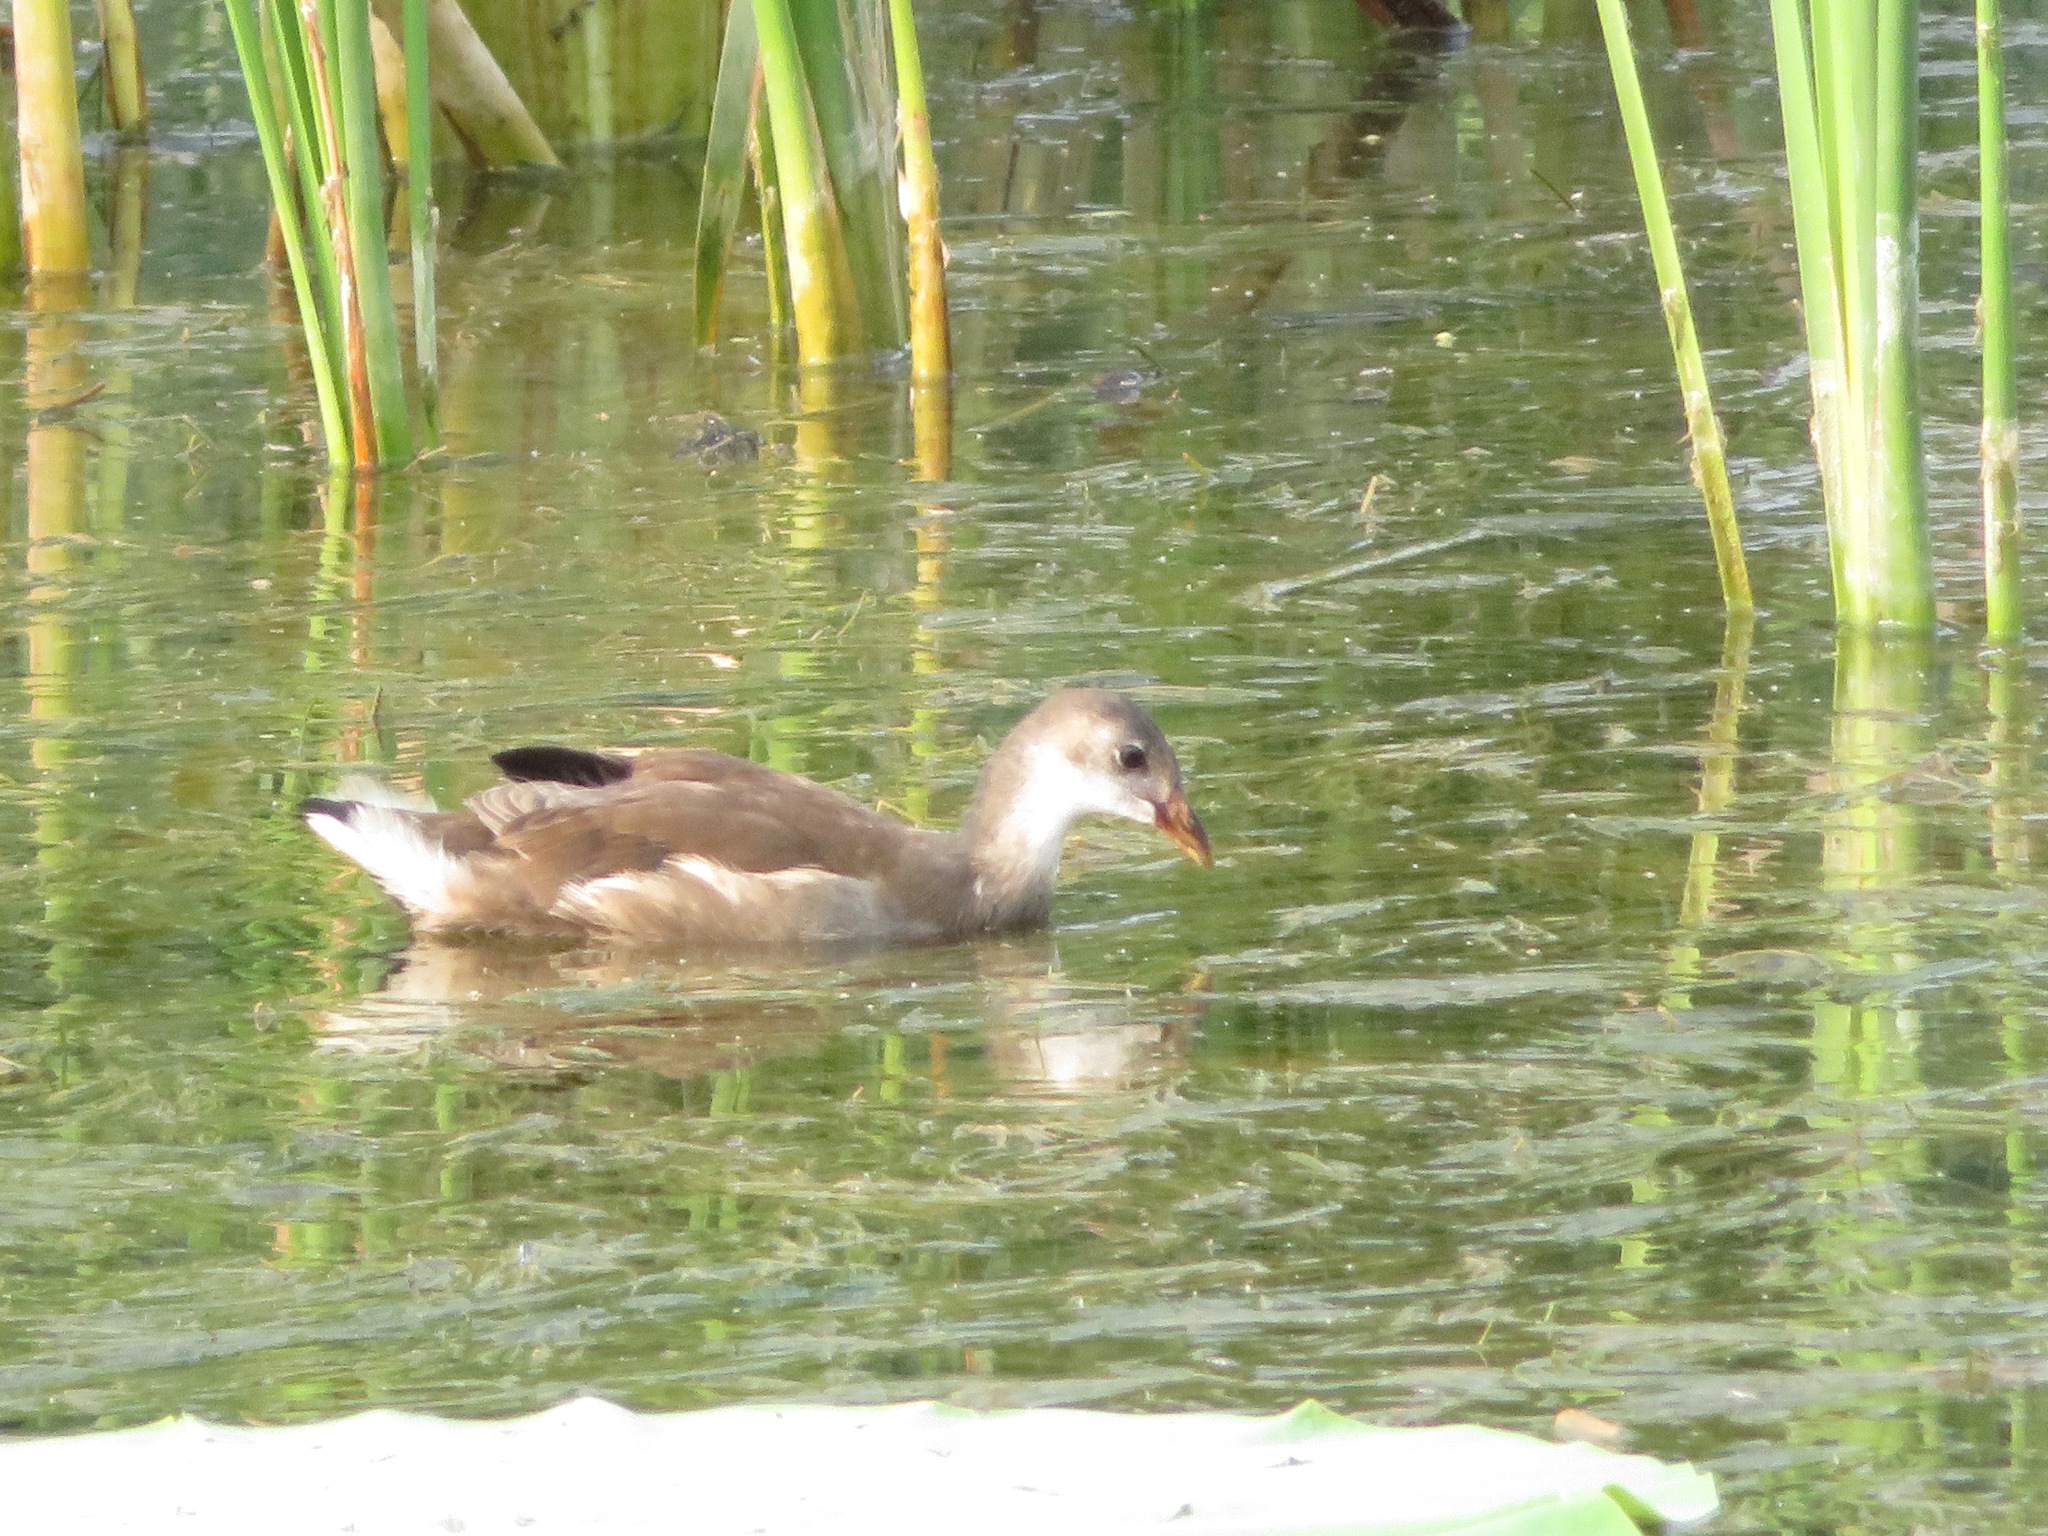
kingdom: Animalia
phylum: Chordata
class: Aves
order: Gruiformes
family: Rallidae
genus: Gallinula
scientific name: Gallinula chloropus
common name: Common moorhen
